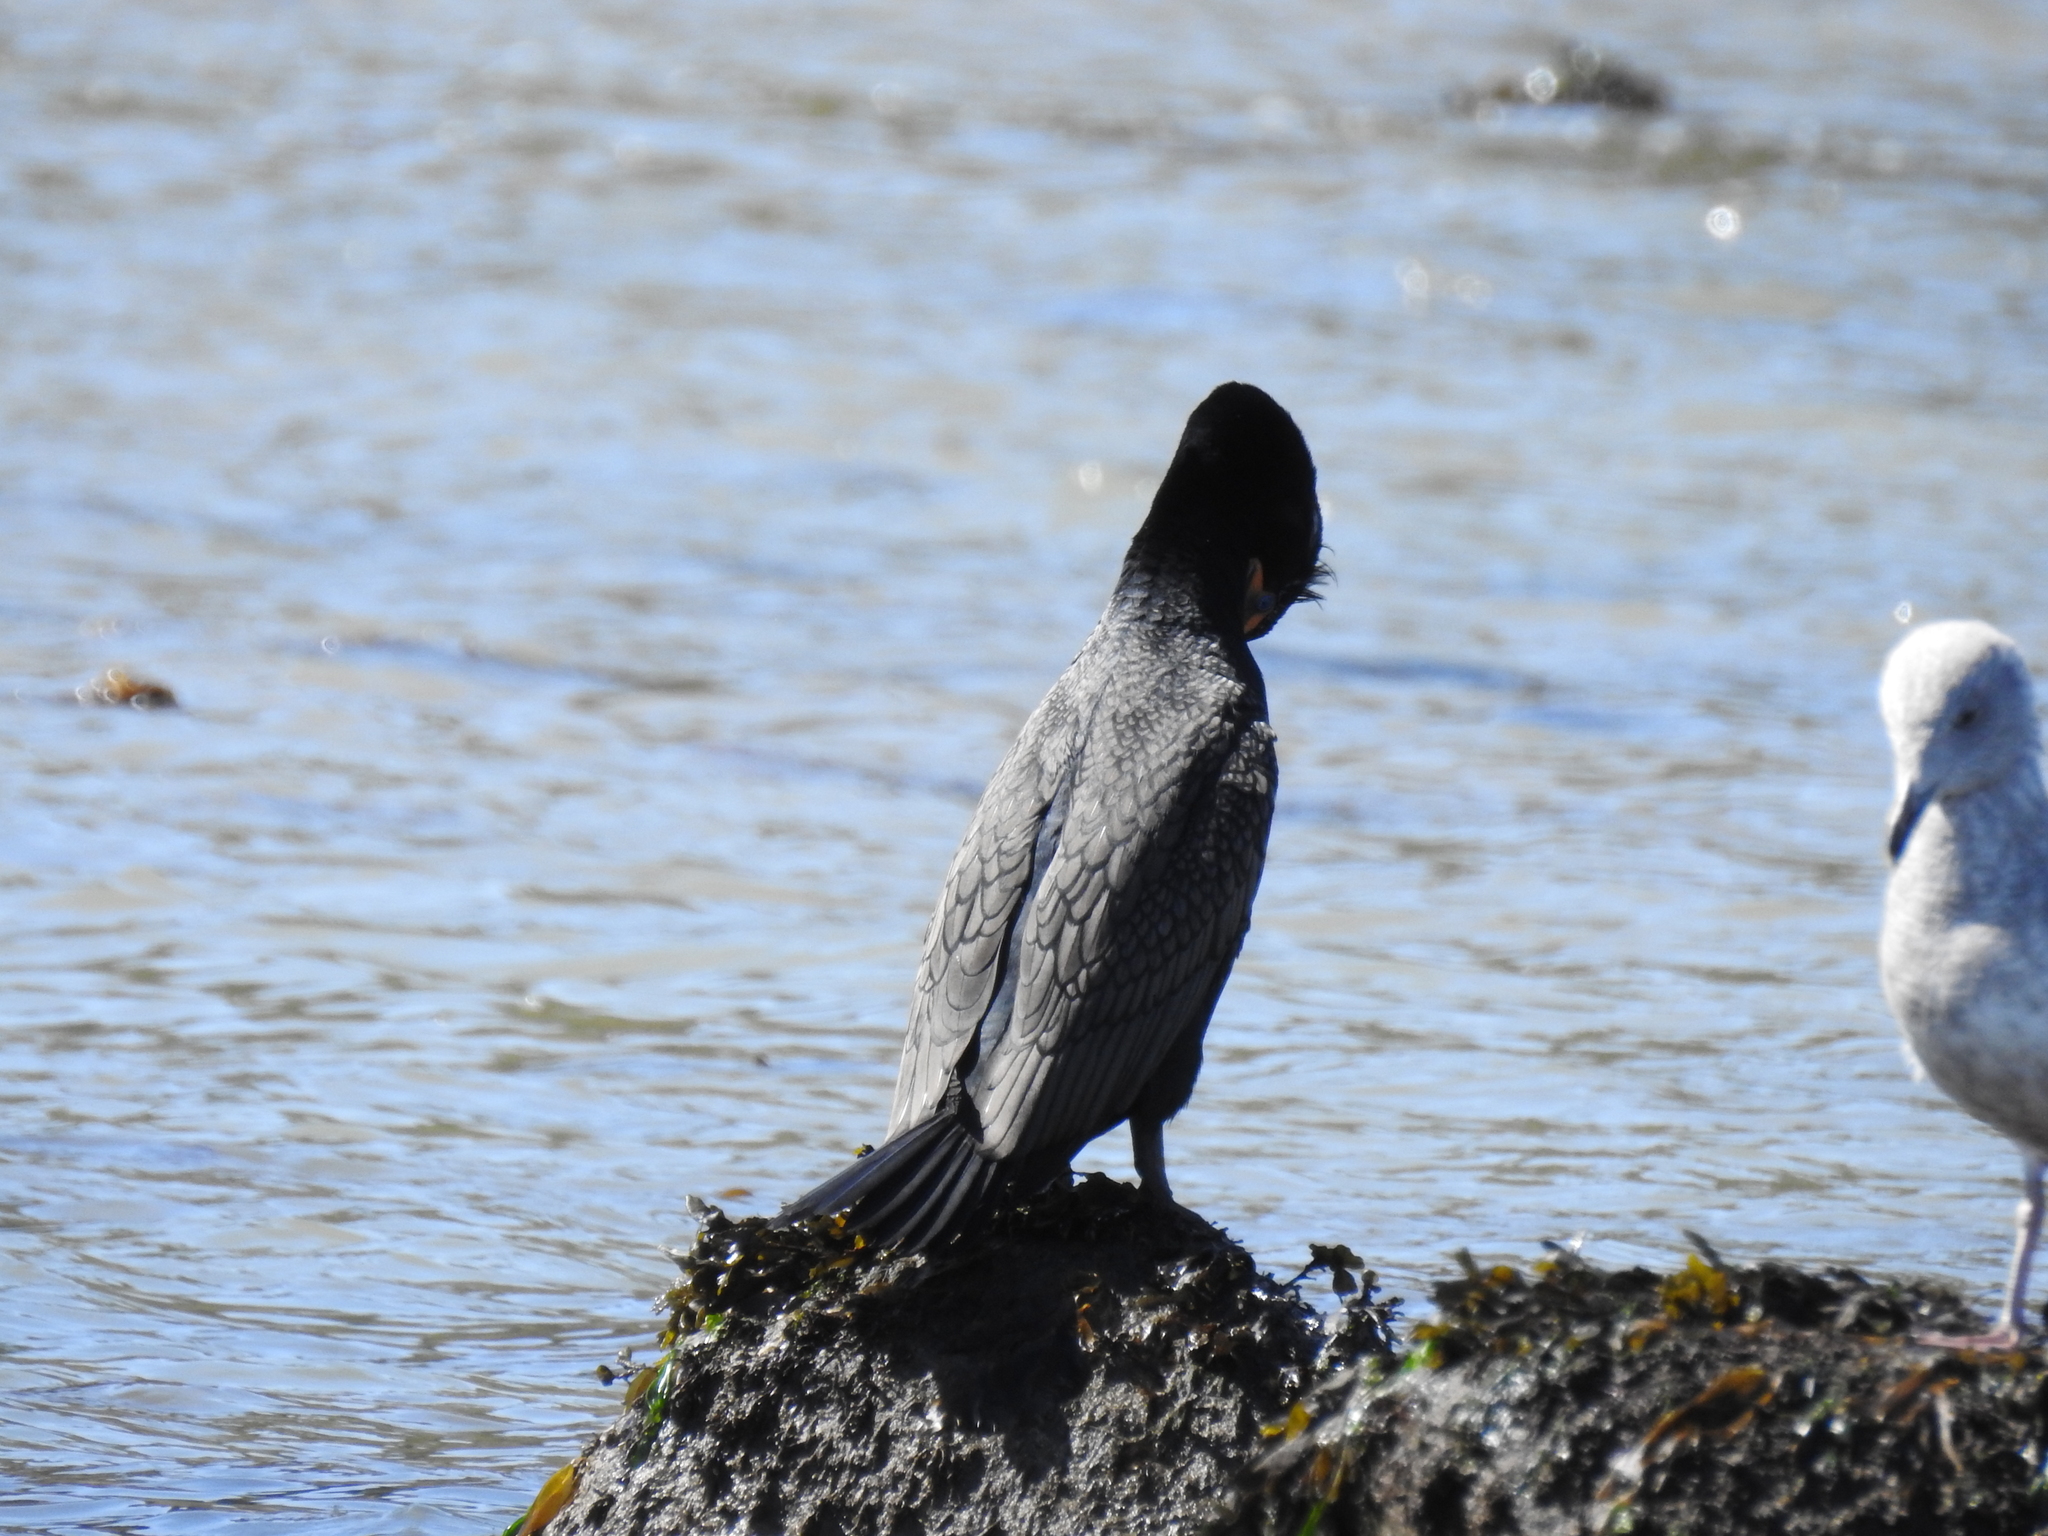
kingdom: Animalia
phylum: Chordata
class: Aves
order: Suliformes
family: Phalacrocoracidae
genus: Phalacrocorax
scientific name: Phalacrocorax auritus
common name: Double-crested cormorant
